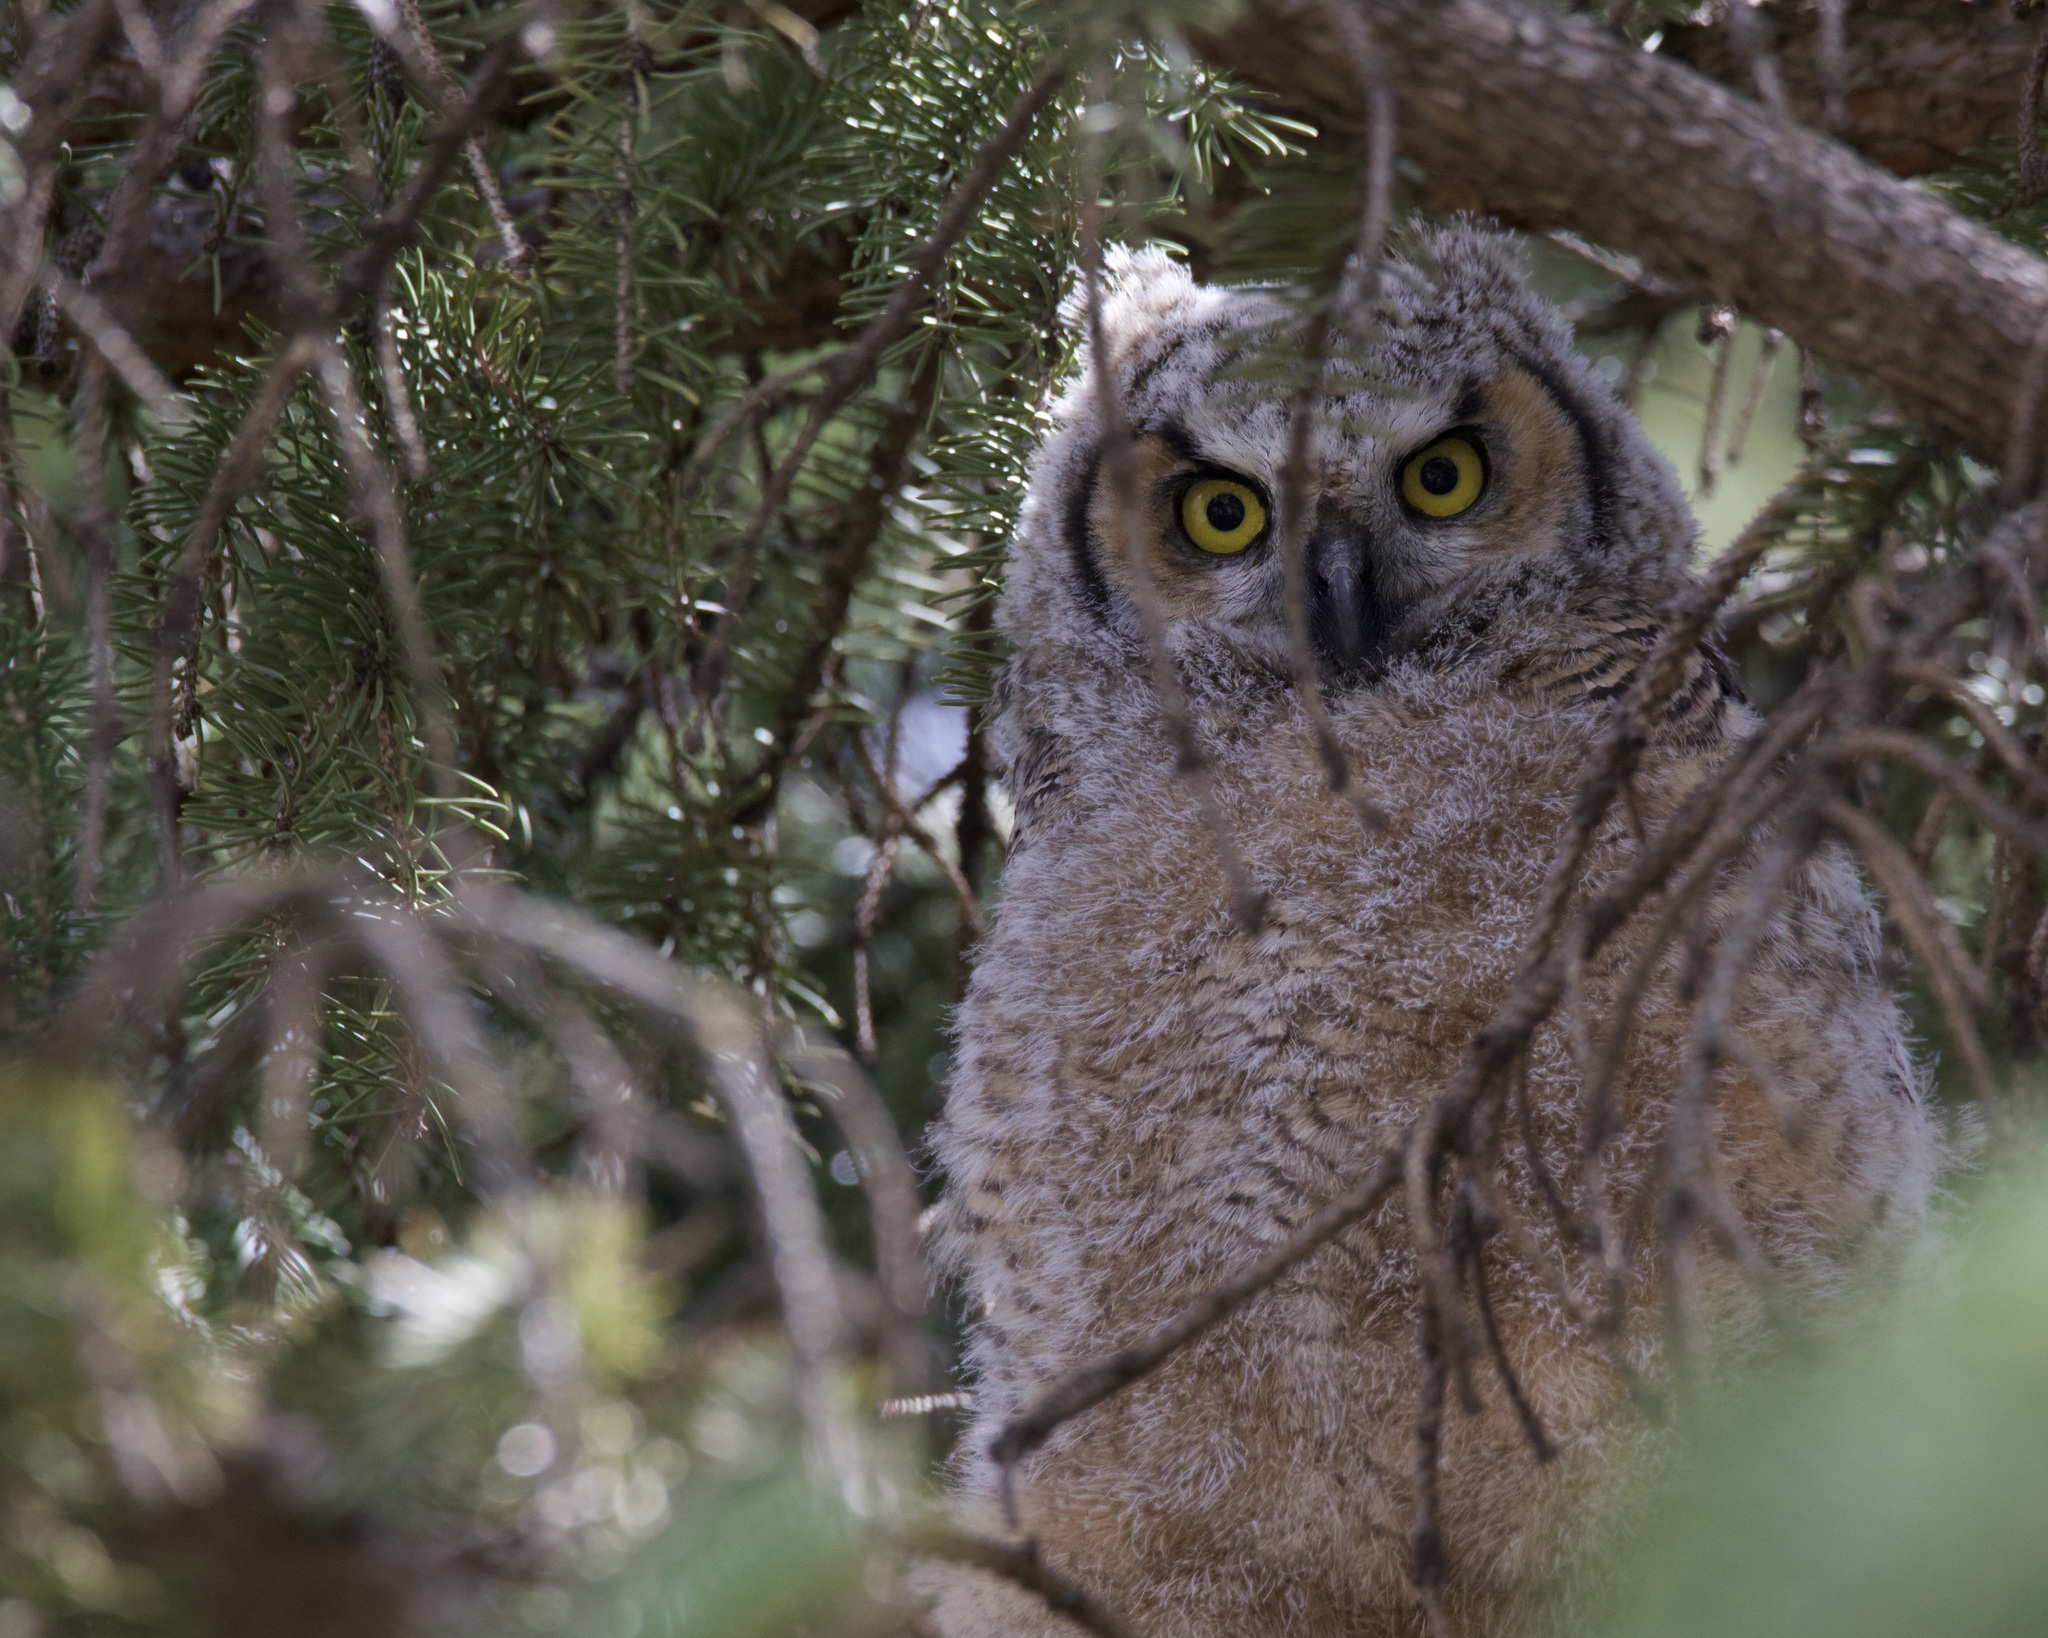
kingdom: Animalia
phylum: Chordata
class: Aves
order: Strigiformes
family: Strigidae
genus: Bubo
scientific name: Bubo virginianus
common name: Great horned owl
